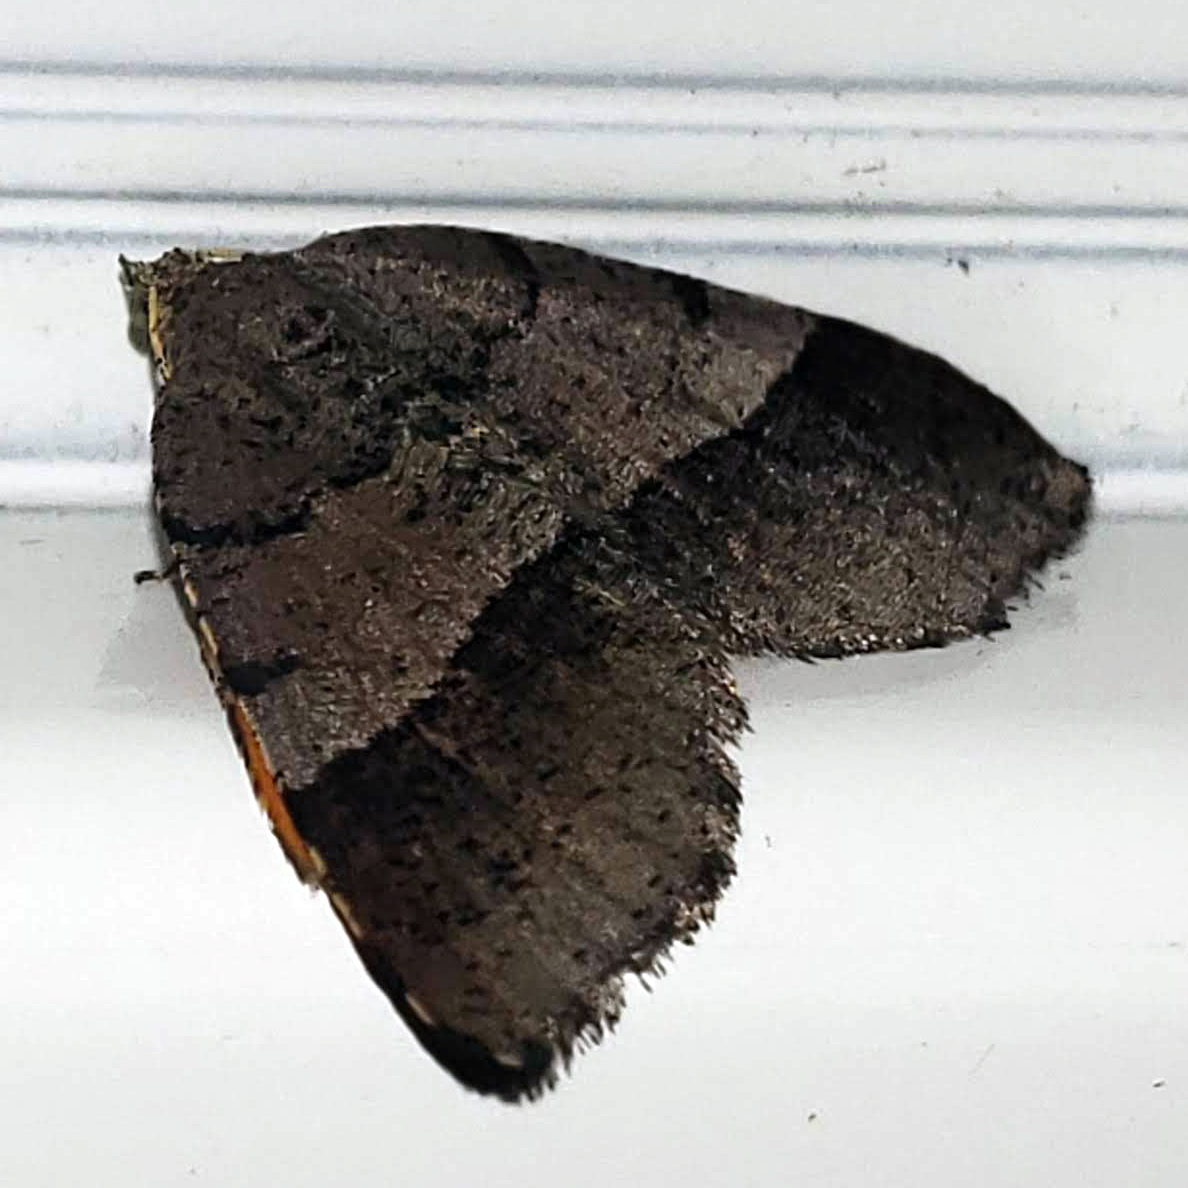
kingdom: Animalia
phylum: Arthropoda
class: Insecta
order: Lepidoptera
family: Geometridae
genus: Mellilla
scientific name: Mellilla xanthometata
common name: Orange wing moth
